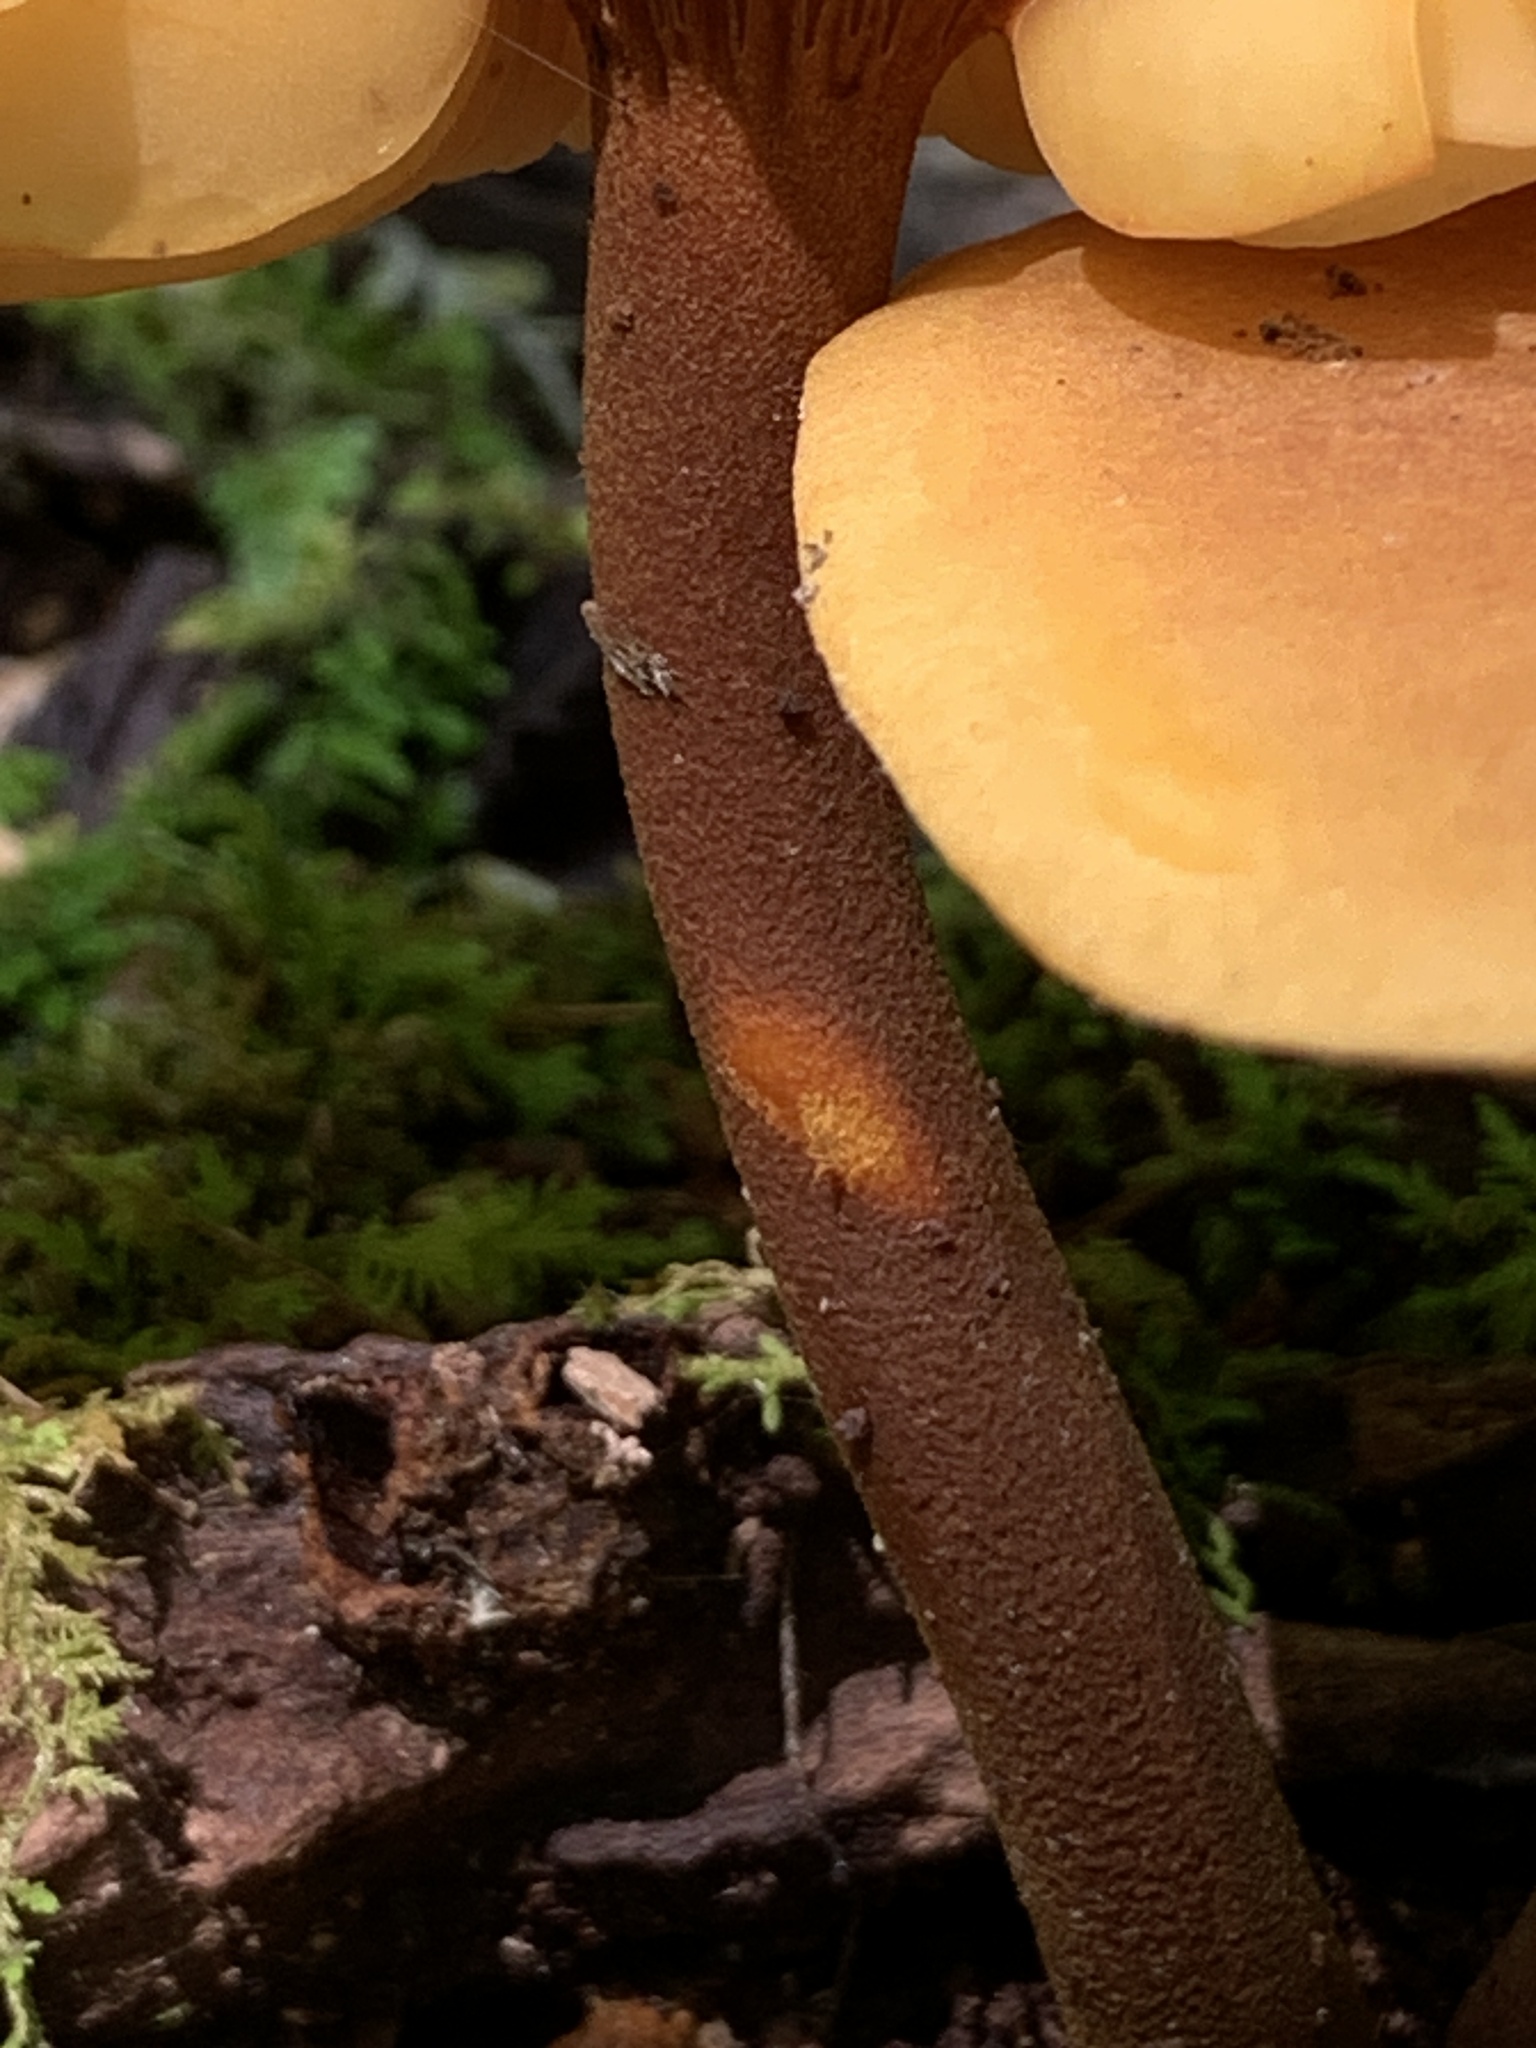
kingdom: Fungi
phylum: Basidiomycota
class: Agaricomycetes
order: Agaricales
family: Mycenaceae
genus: Xeromphalina
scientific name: Xeromphalina tenuipes
